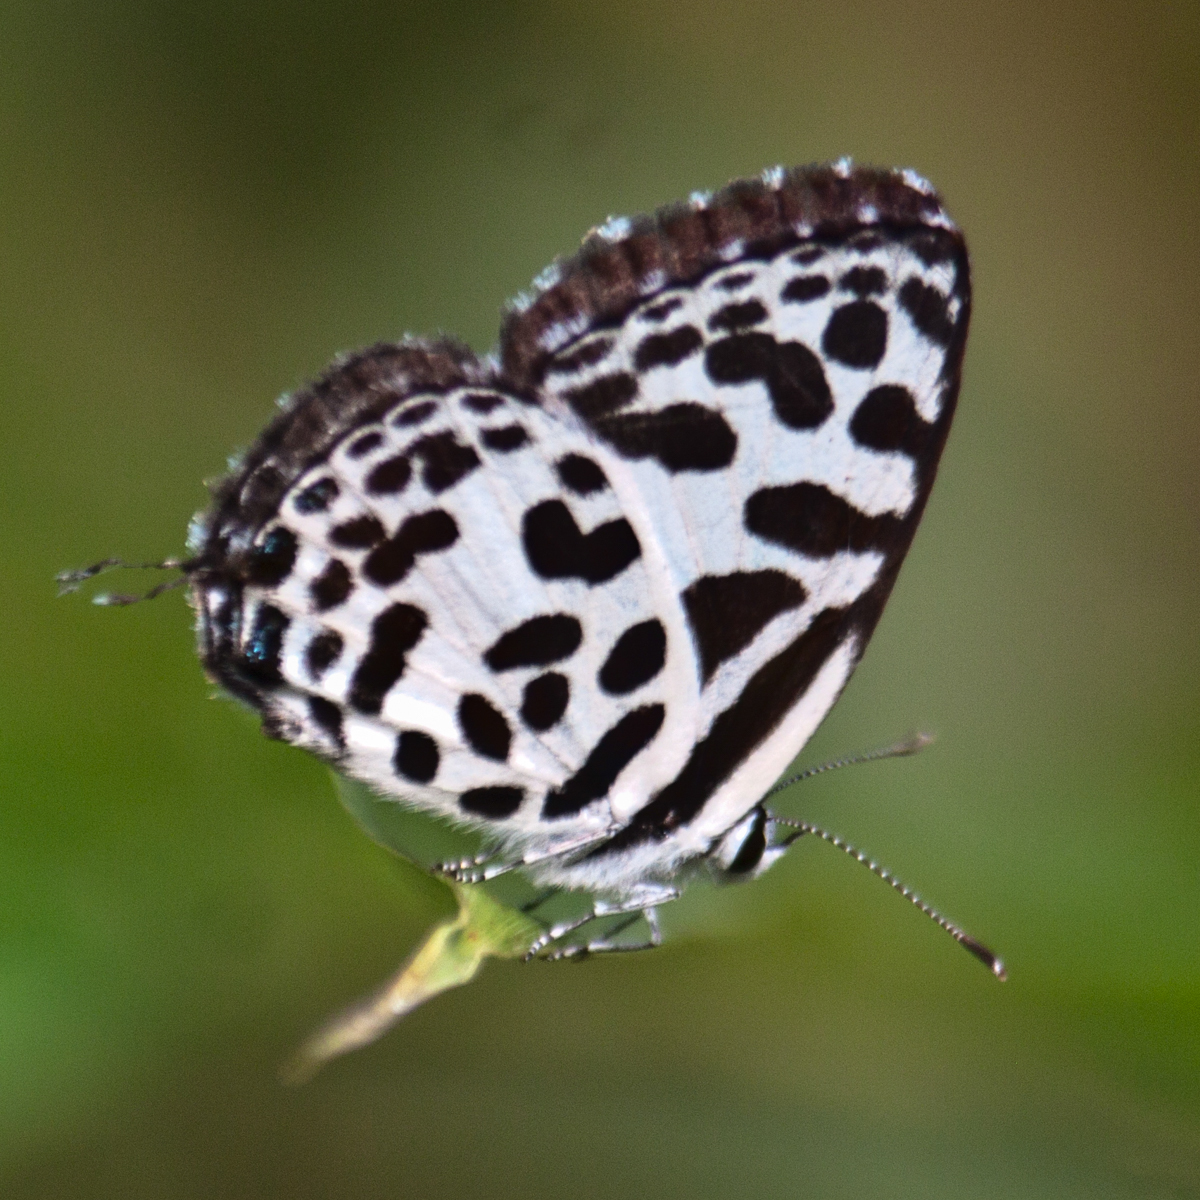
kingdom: Animalia
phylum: Arthropoda
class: Insecta
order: Lepidoptera
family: Lycaenidae
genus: Castalius
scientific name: Castalius rosimon
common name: Common pierrot
